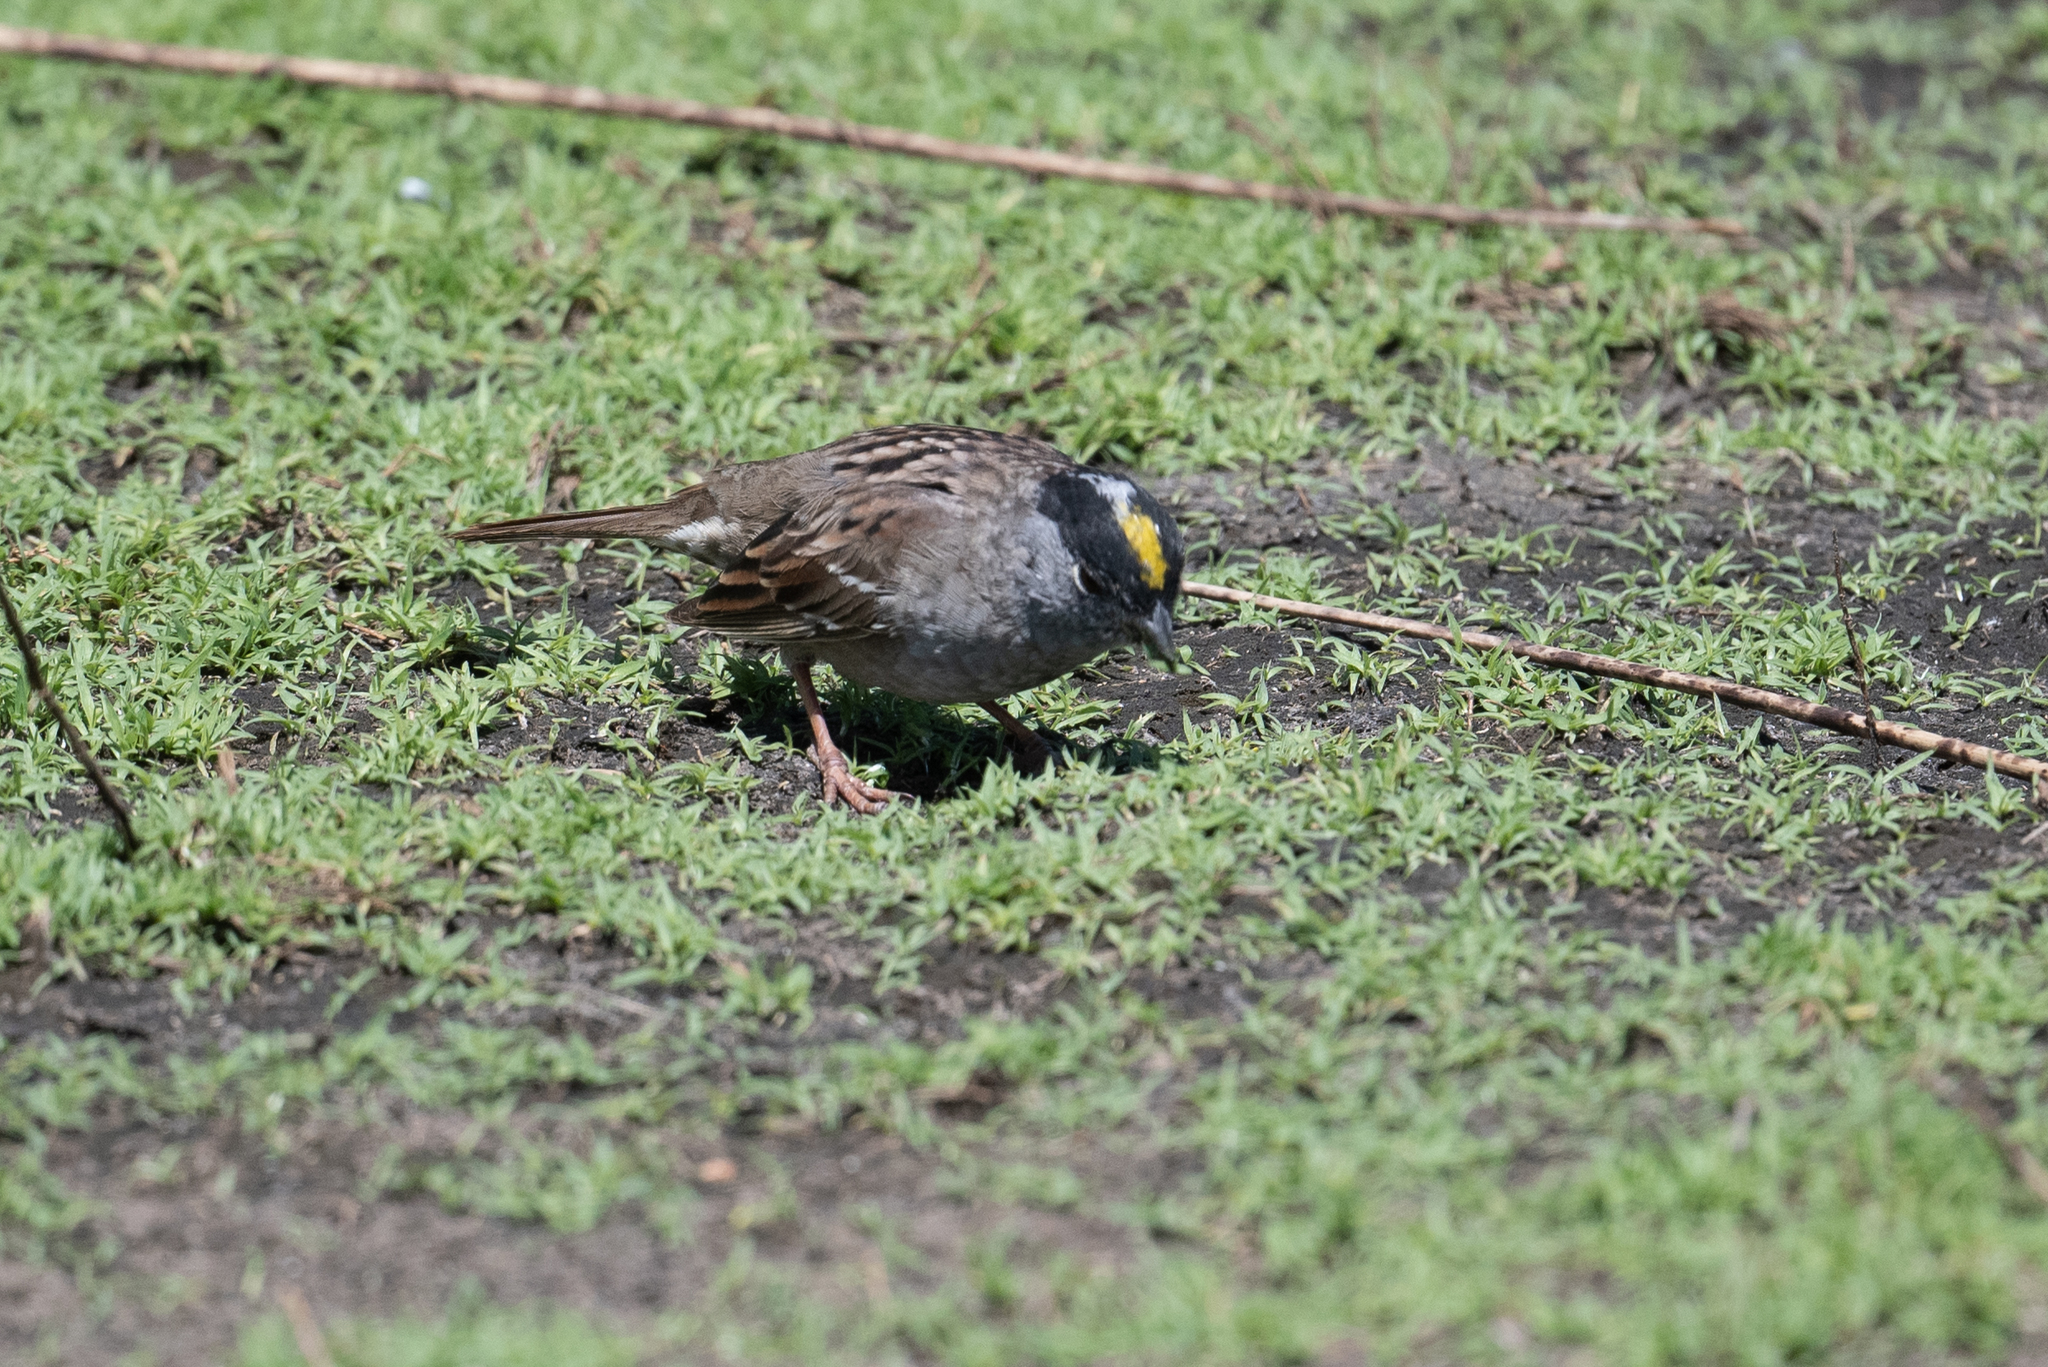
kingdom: Animalia
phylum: Chordata
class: Aves
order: Passeriformes
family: Passerellidae
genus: Zonotrichia
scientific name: Zonotrichia atricapilla
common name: Golden-crowned sparrow
